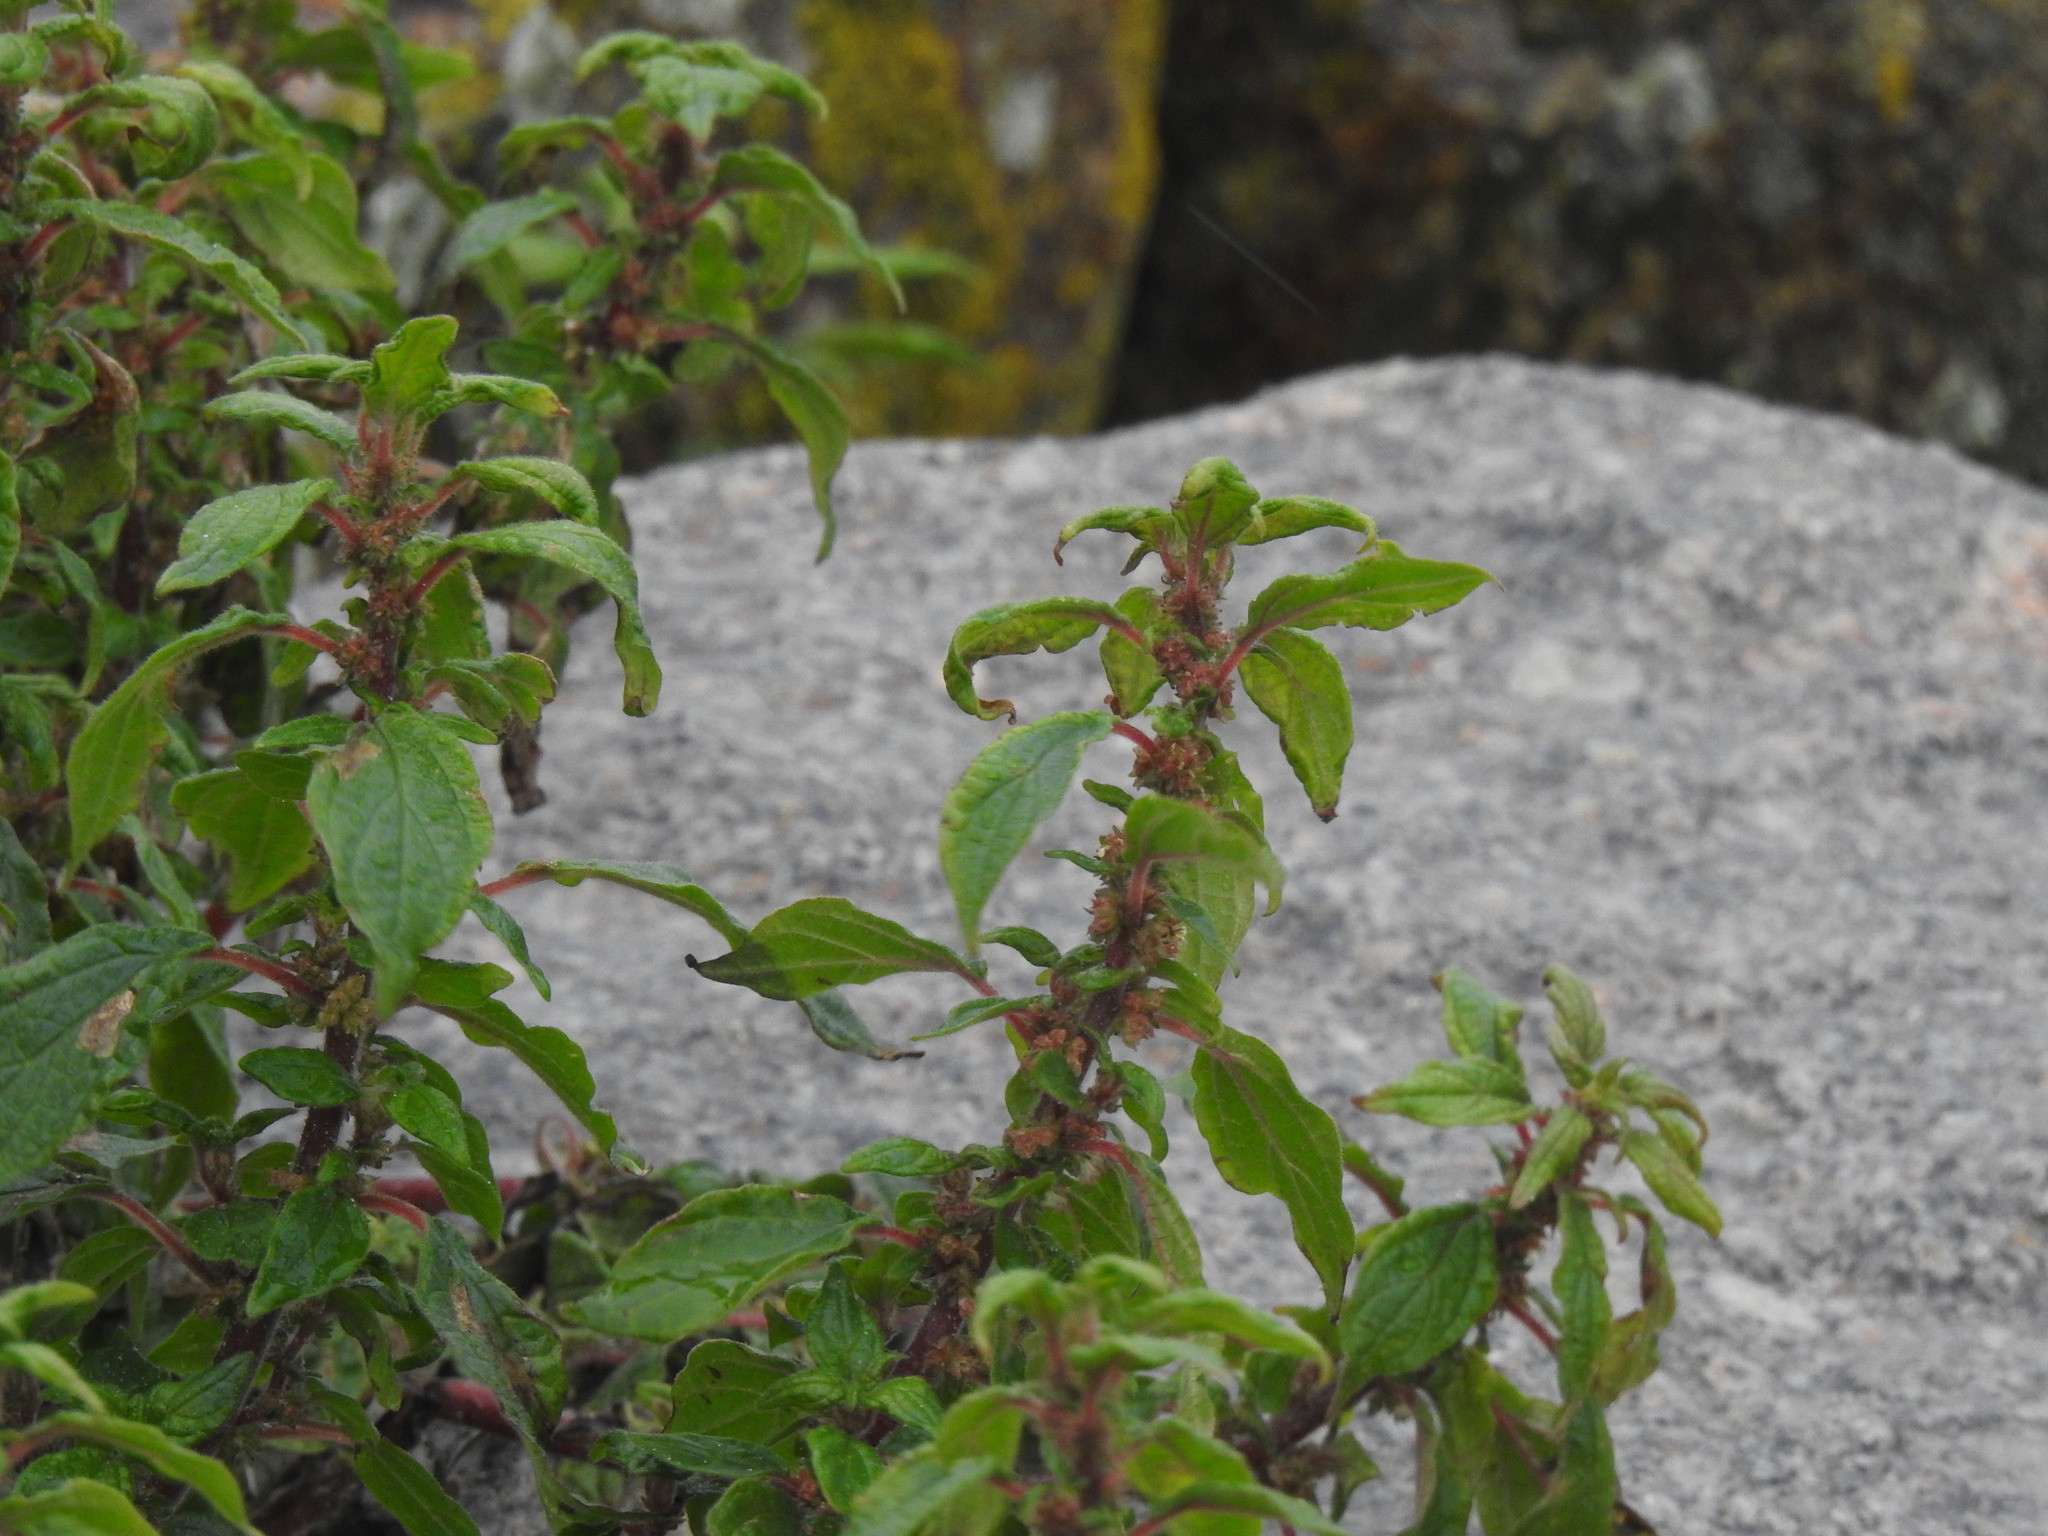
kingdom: Plantae
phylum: Tracheophyta
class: Magnoliopsida
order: Rosales
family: Urticaceae
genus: Parietaria
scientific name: Parietaria judaica
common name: Pellitory-of-the-wall
